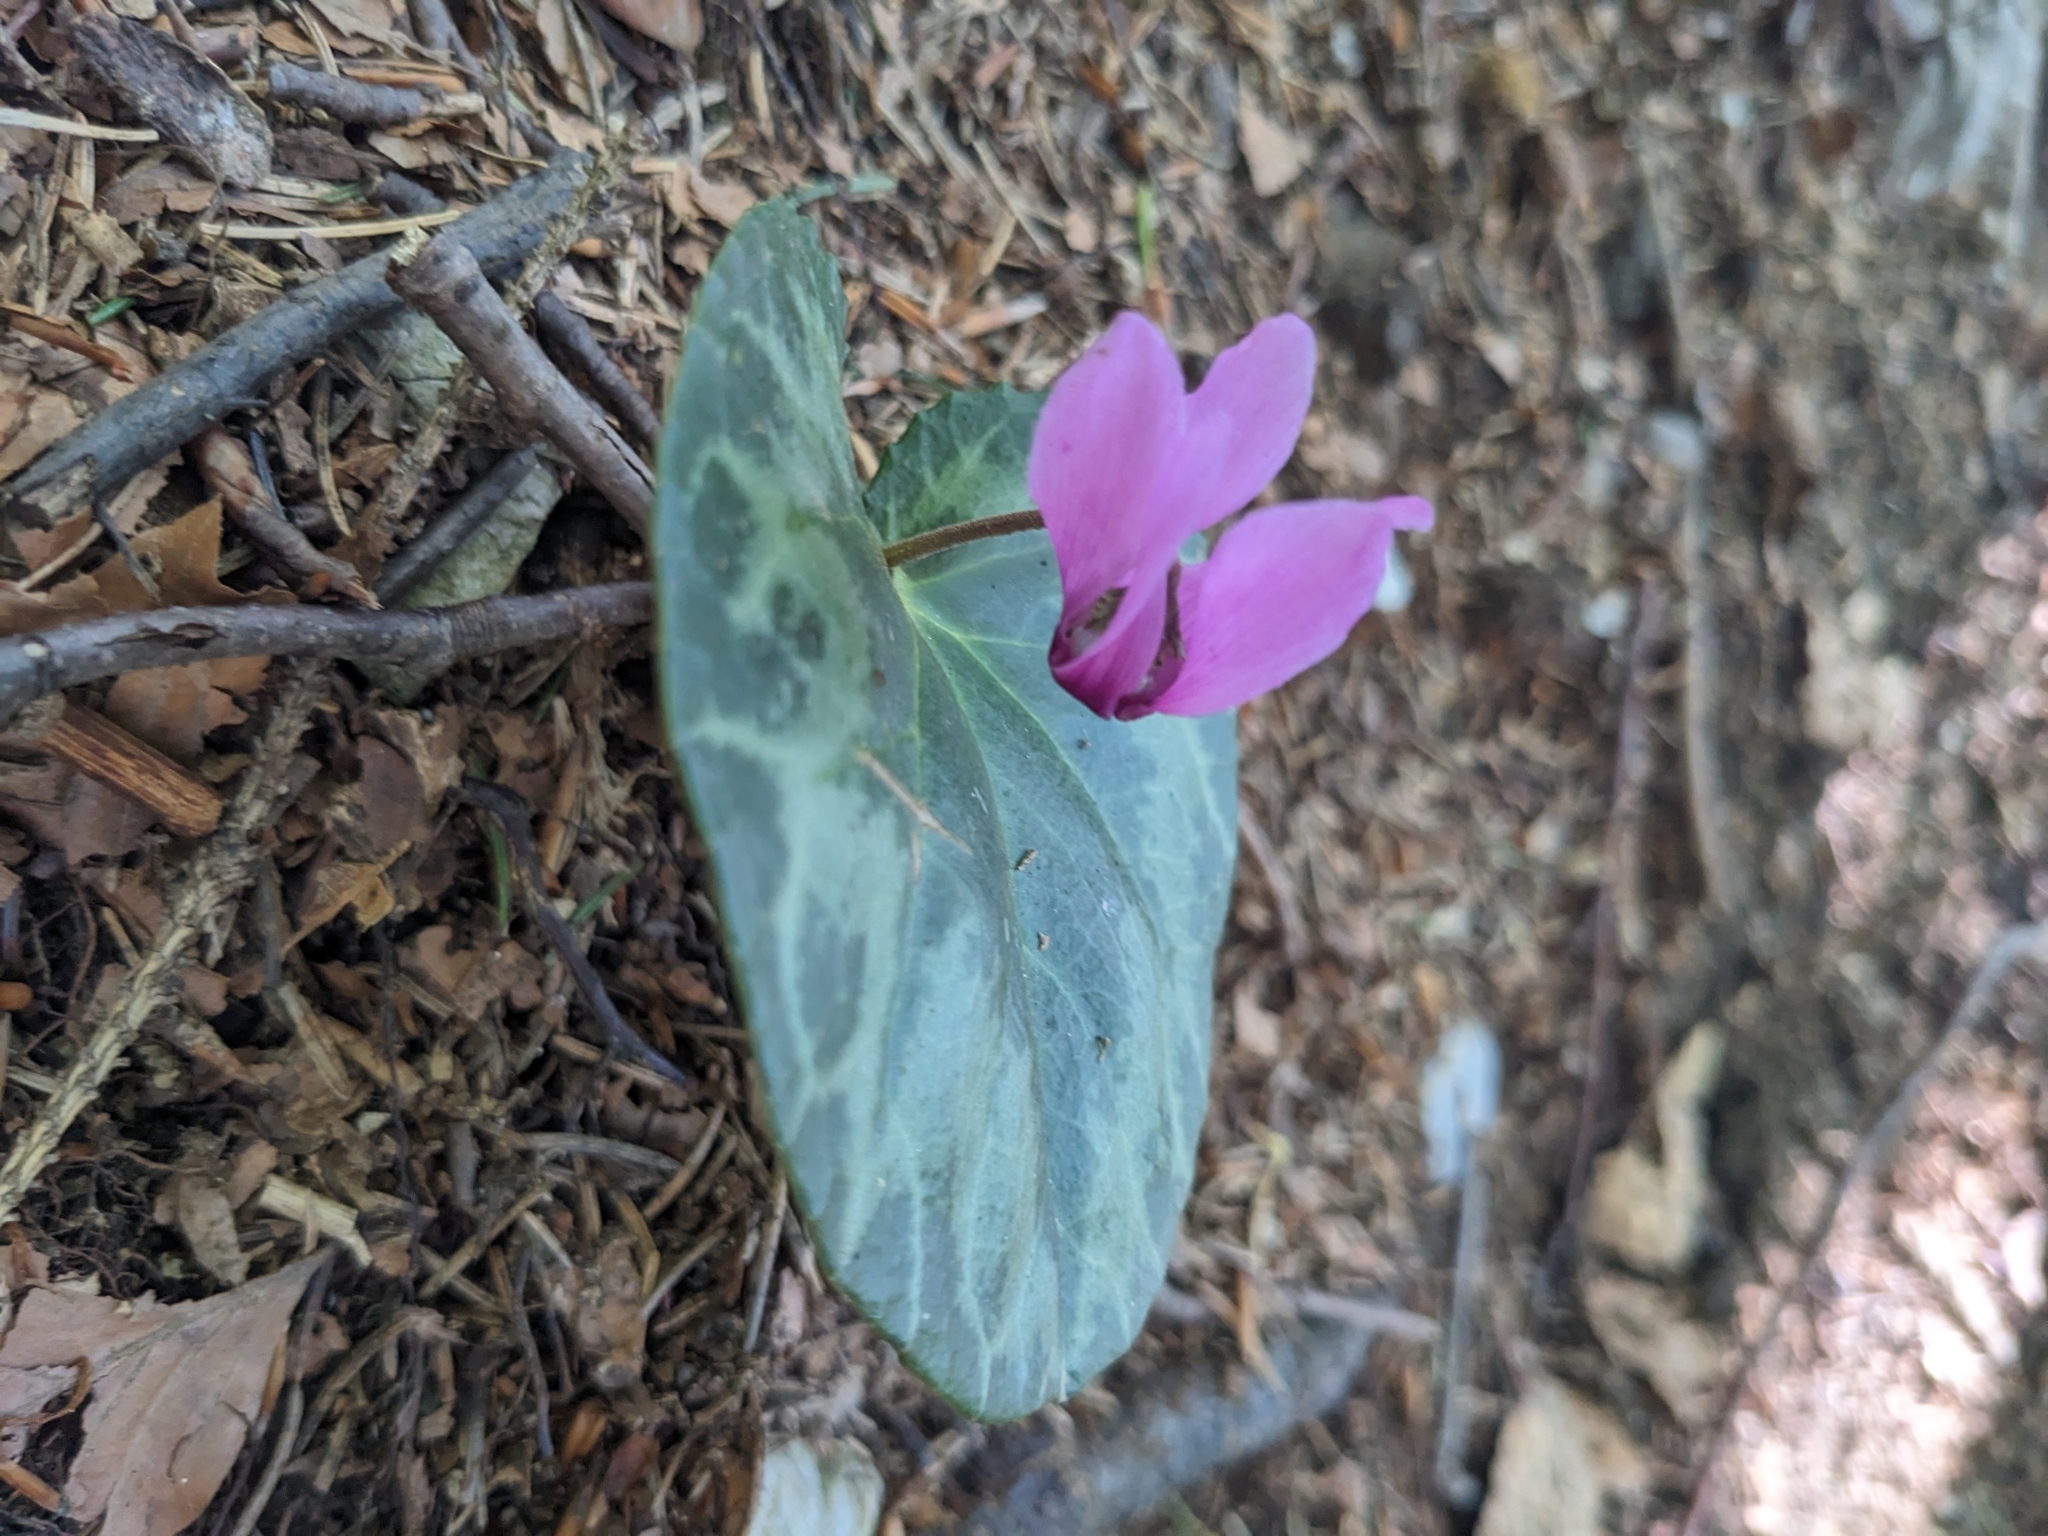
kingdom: Plantae
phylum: Tracheophyta
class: Magnoliopsida
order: Ericales
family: Primulaceae
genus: Cyclamen
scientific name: Cyclamen purpurascens
